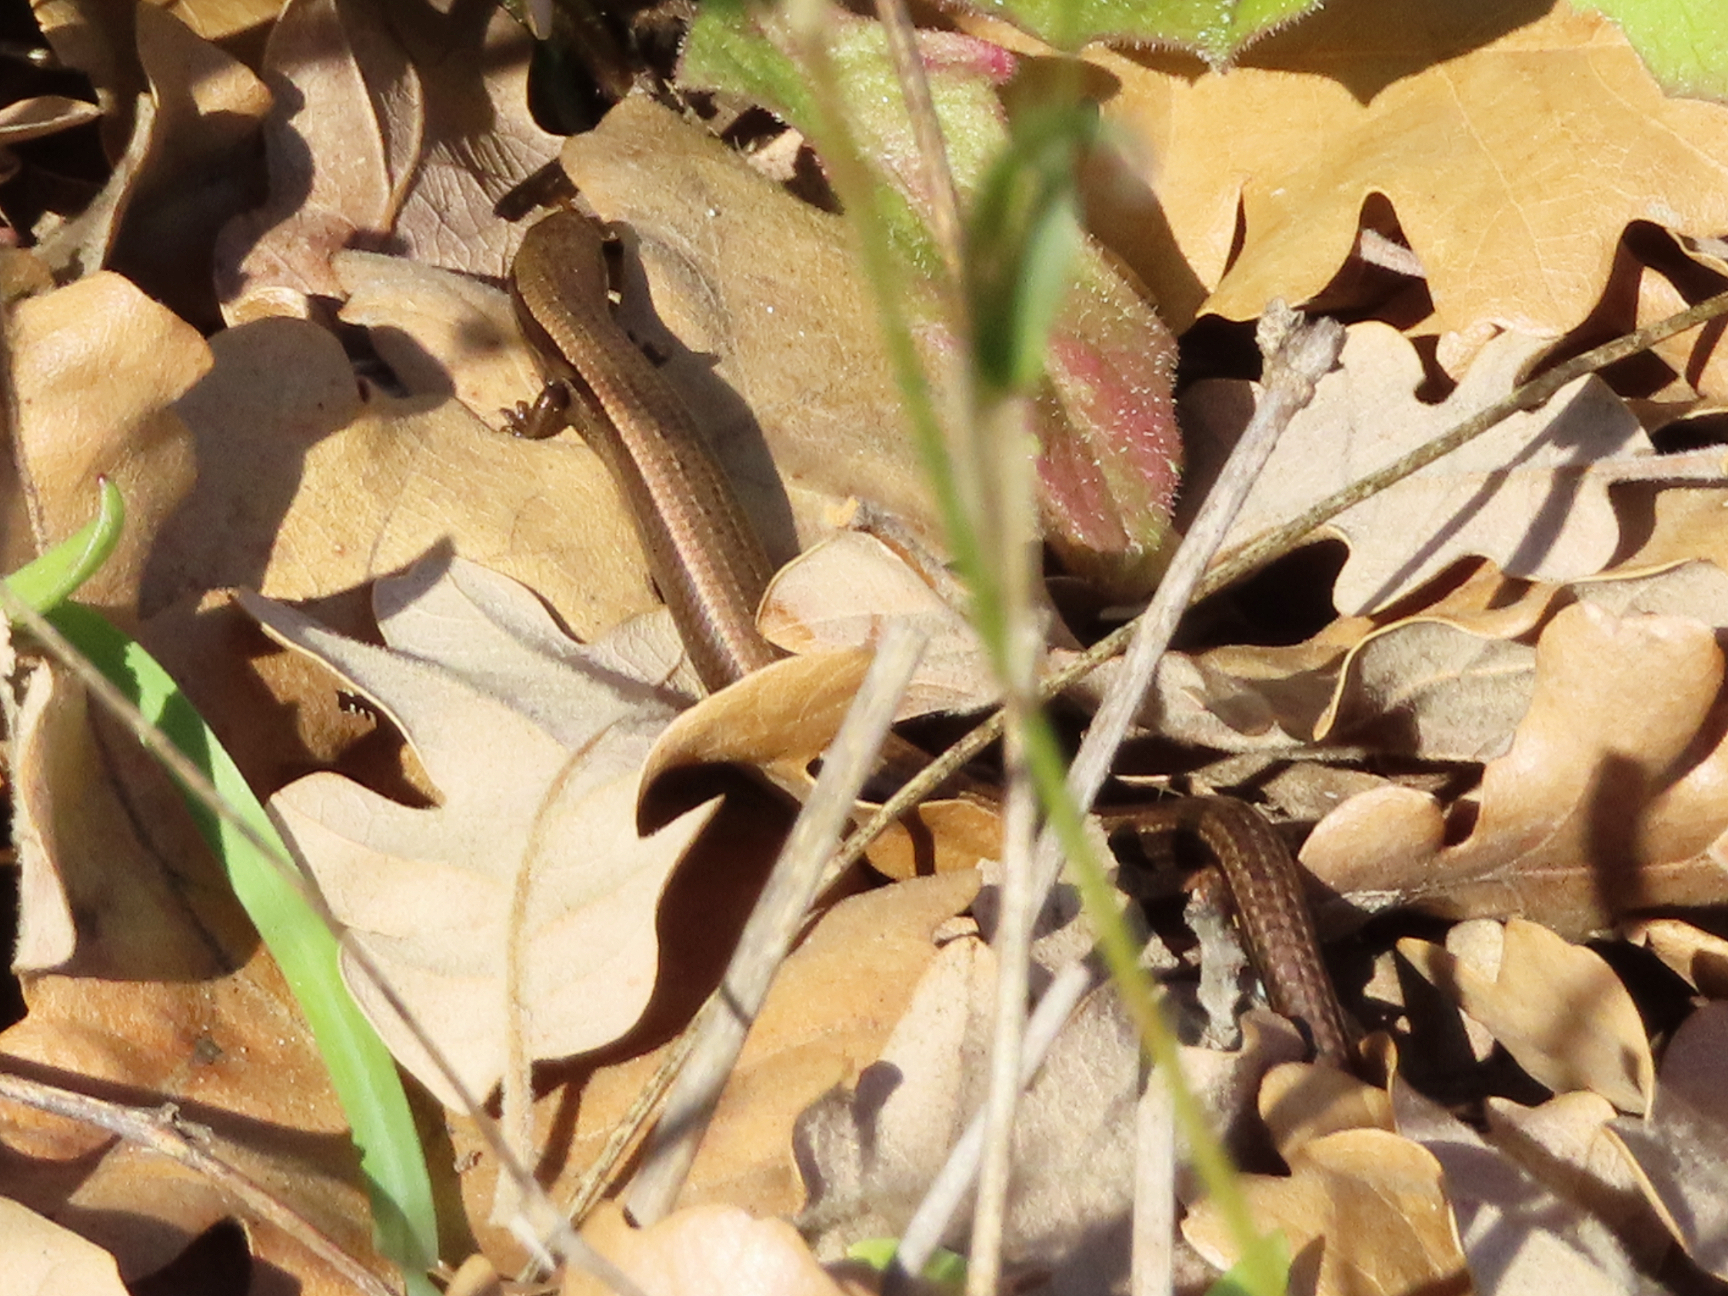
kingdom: Animalia
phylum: Chordata
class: Squamata
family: Scincidae
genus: Ablepharus
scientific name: Ablepharus kitaibelii
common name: Juniper skink
